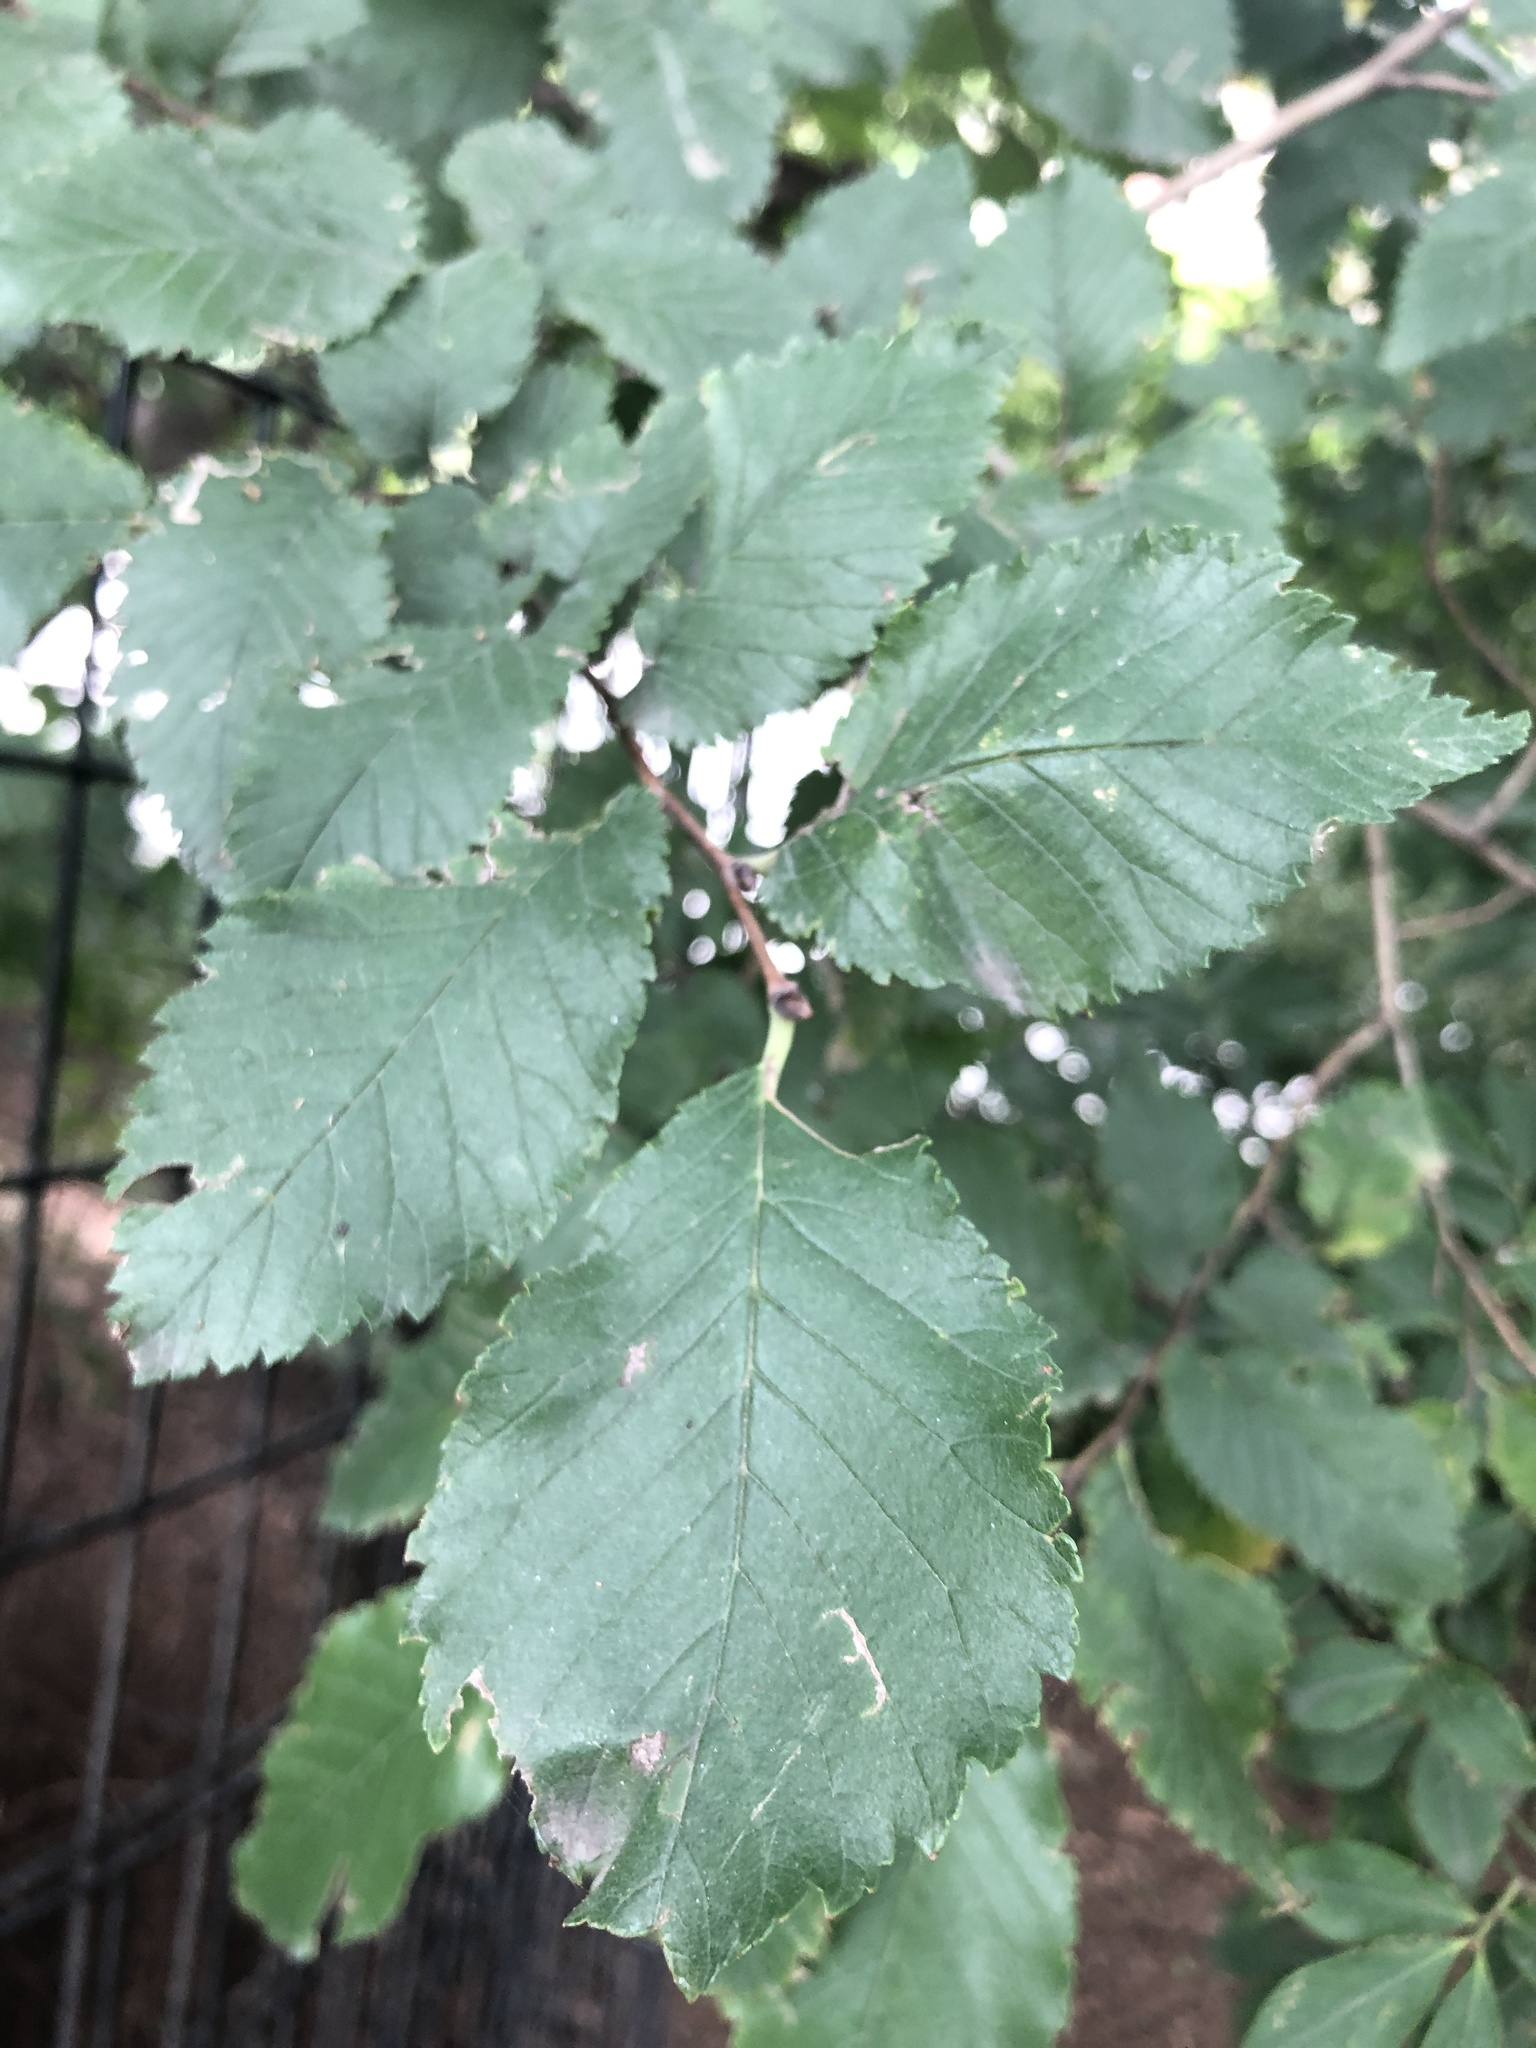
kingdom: Plantae
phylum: Tracheophyta
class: Magnoliopsida
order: Rosales
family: Ulmaceae
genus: Ulmus
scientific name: Ulmus americana
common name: American elm
